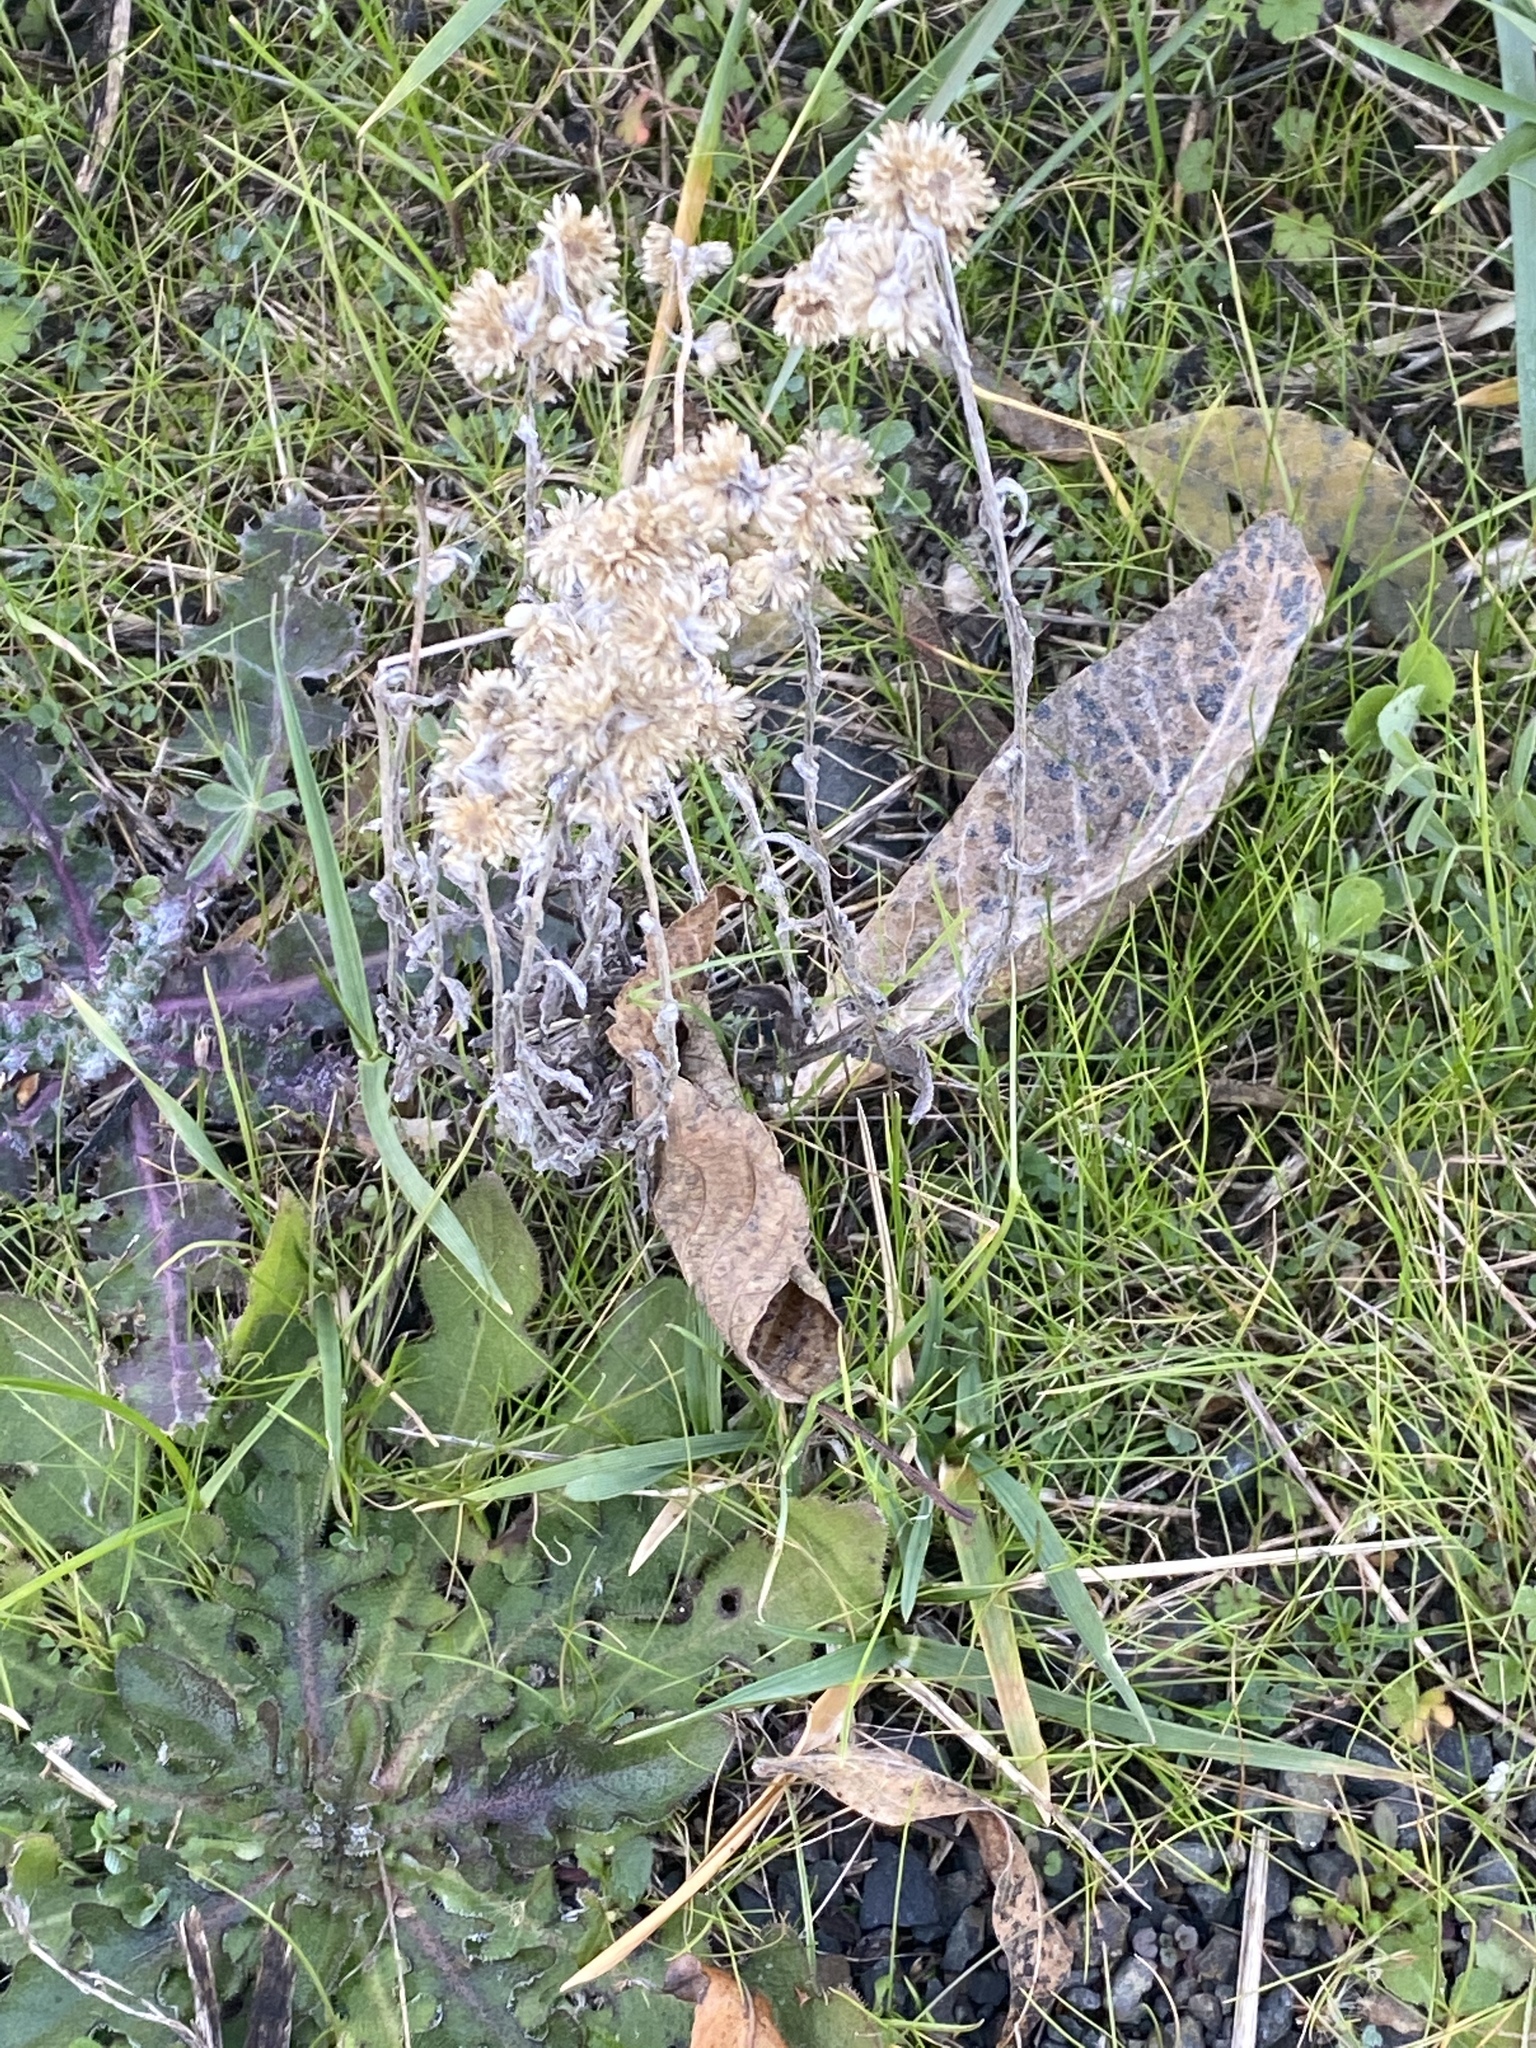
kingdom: Plantae
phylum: Tracheophyta
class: Magnoliopsida
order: Asterales
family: Asteraceae
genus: Pseudognaphalium
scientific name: Pseudognaphalium stramineum
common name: Cotton-batting-plant
